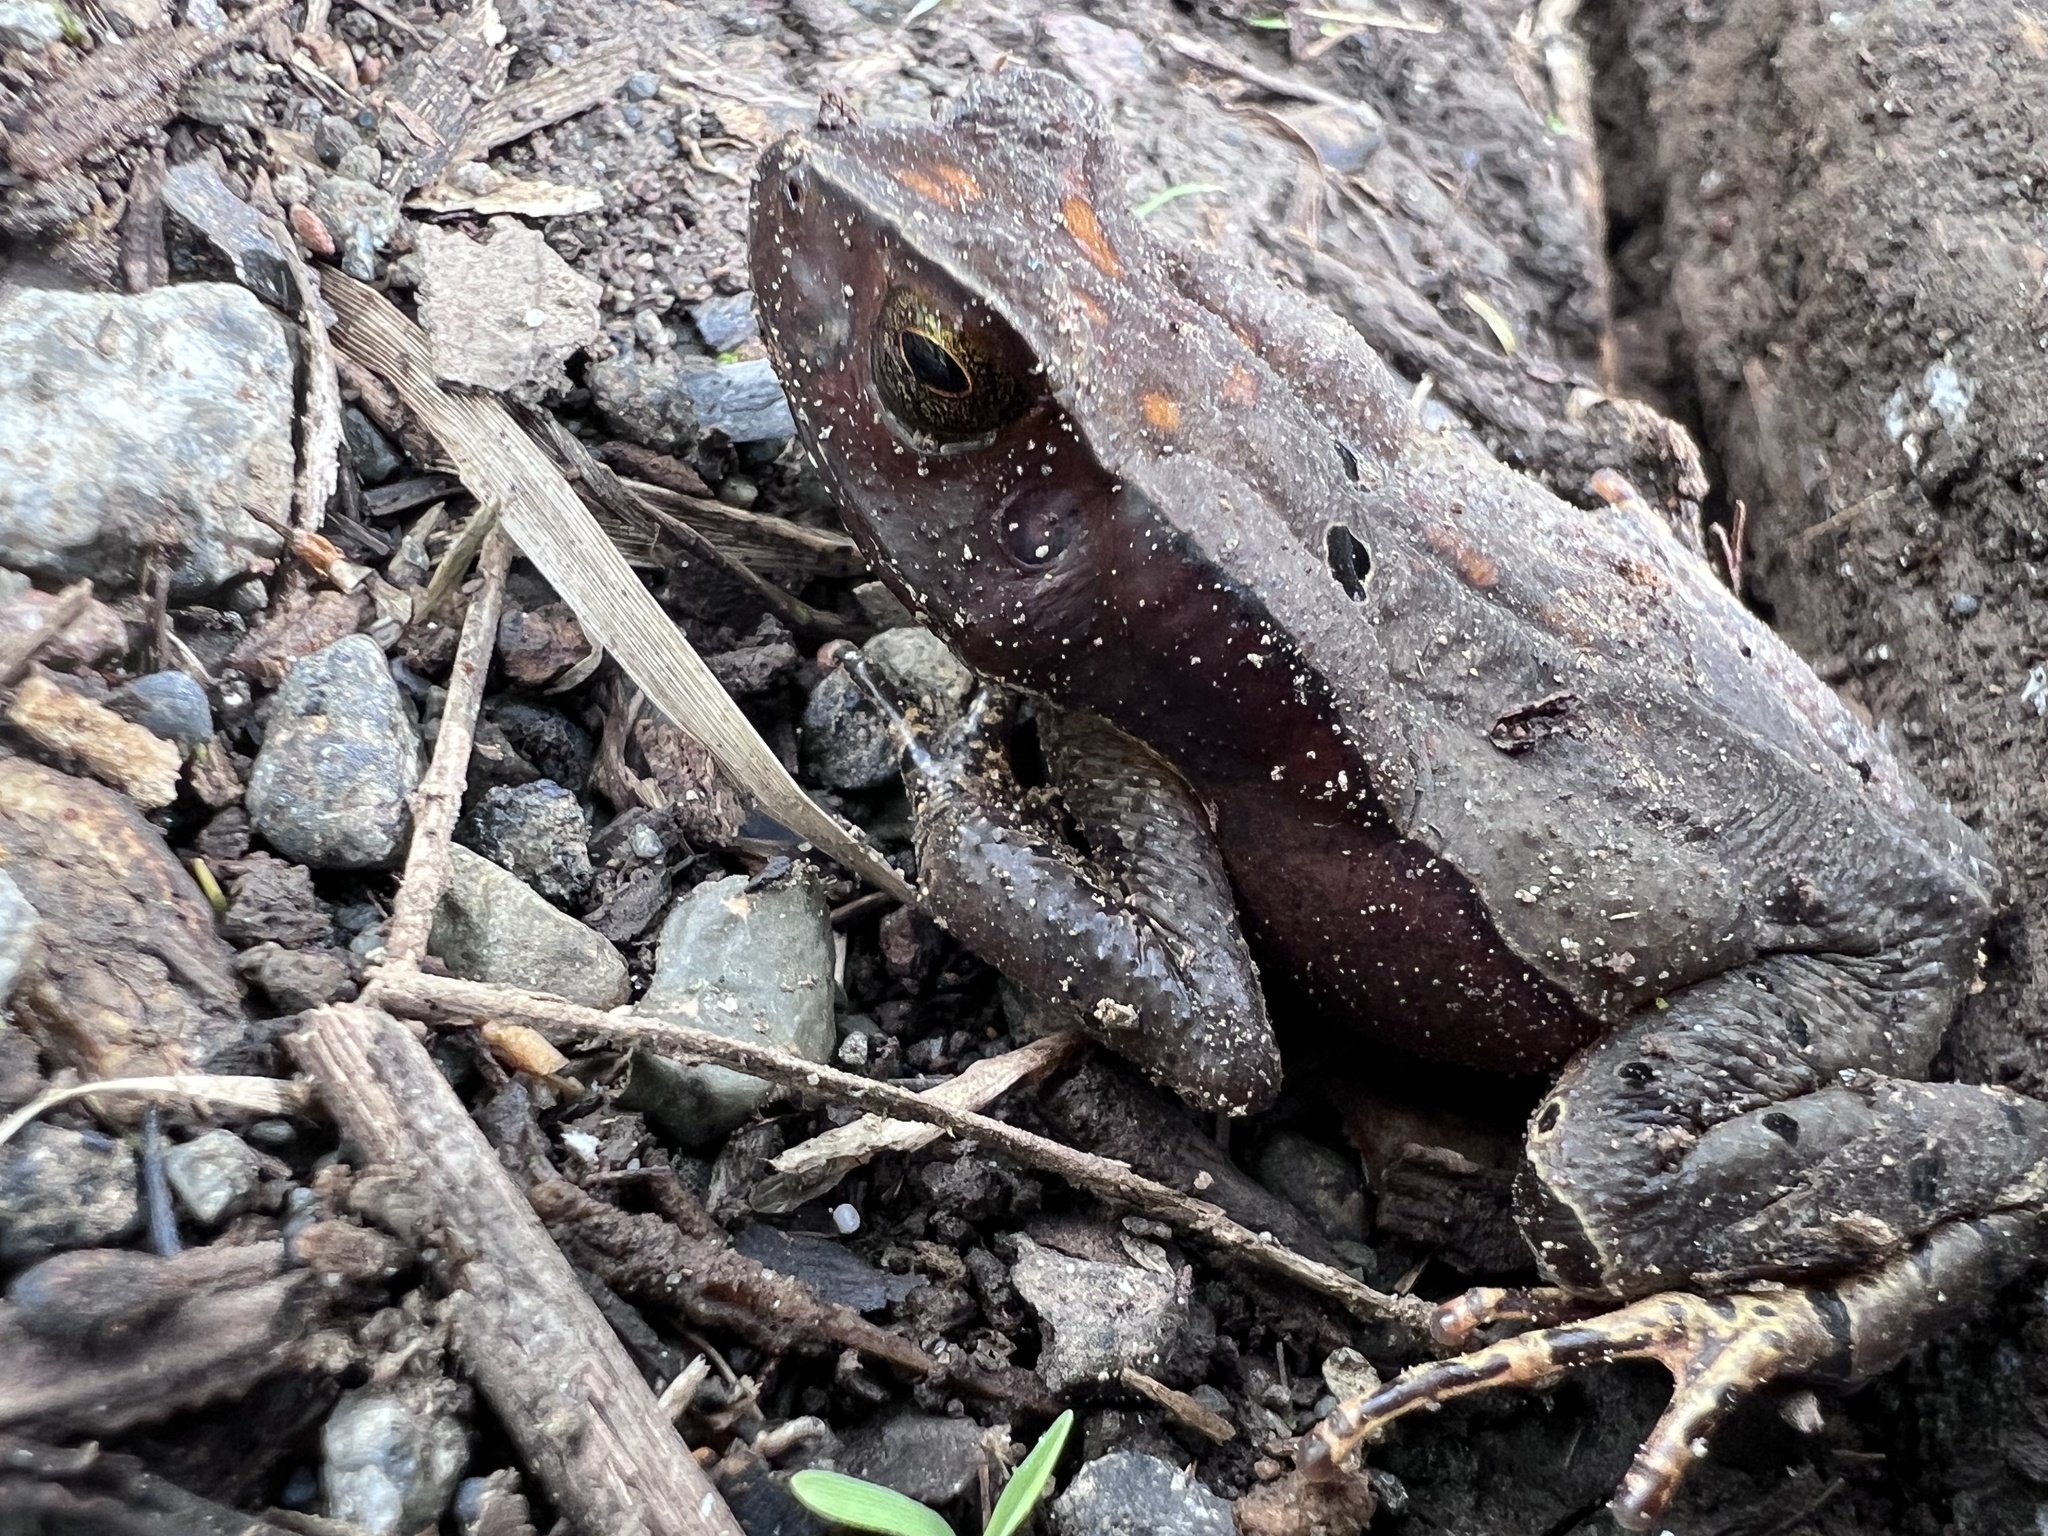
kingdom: Animalia
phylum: Chordata
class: Amphibia
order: Anura
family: Bufonidae
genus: Rhaebo
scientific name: Rhaebo haematiticus
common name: Truando toad
